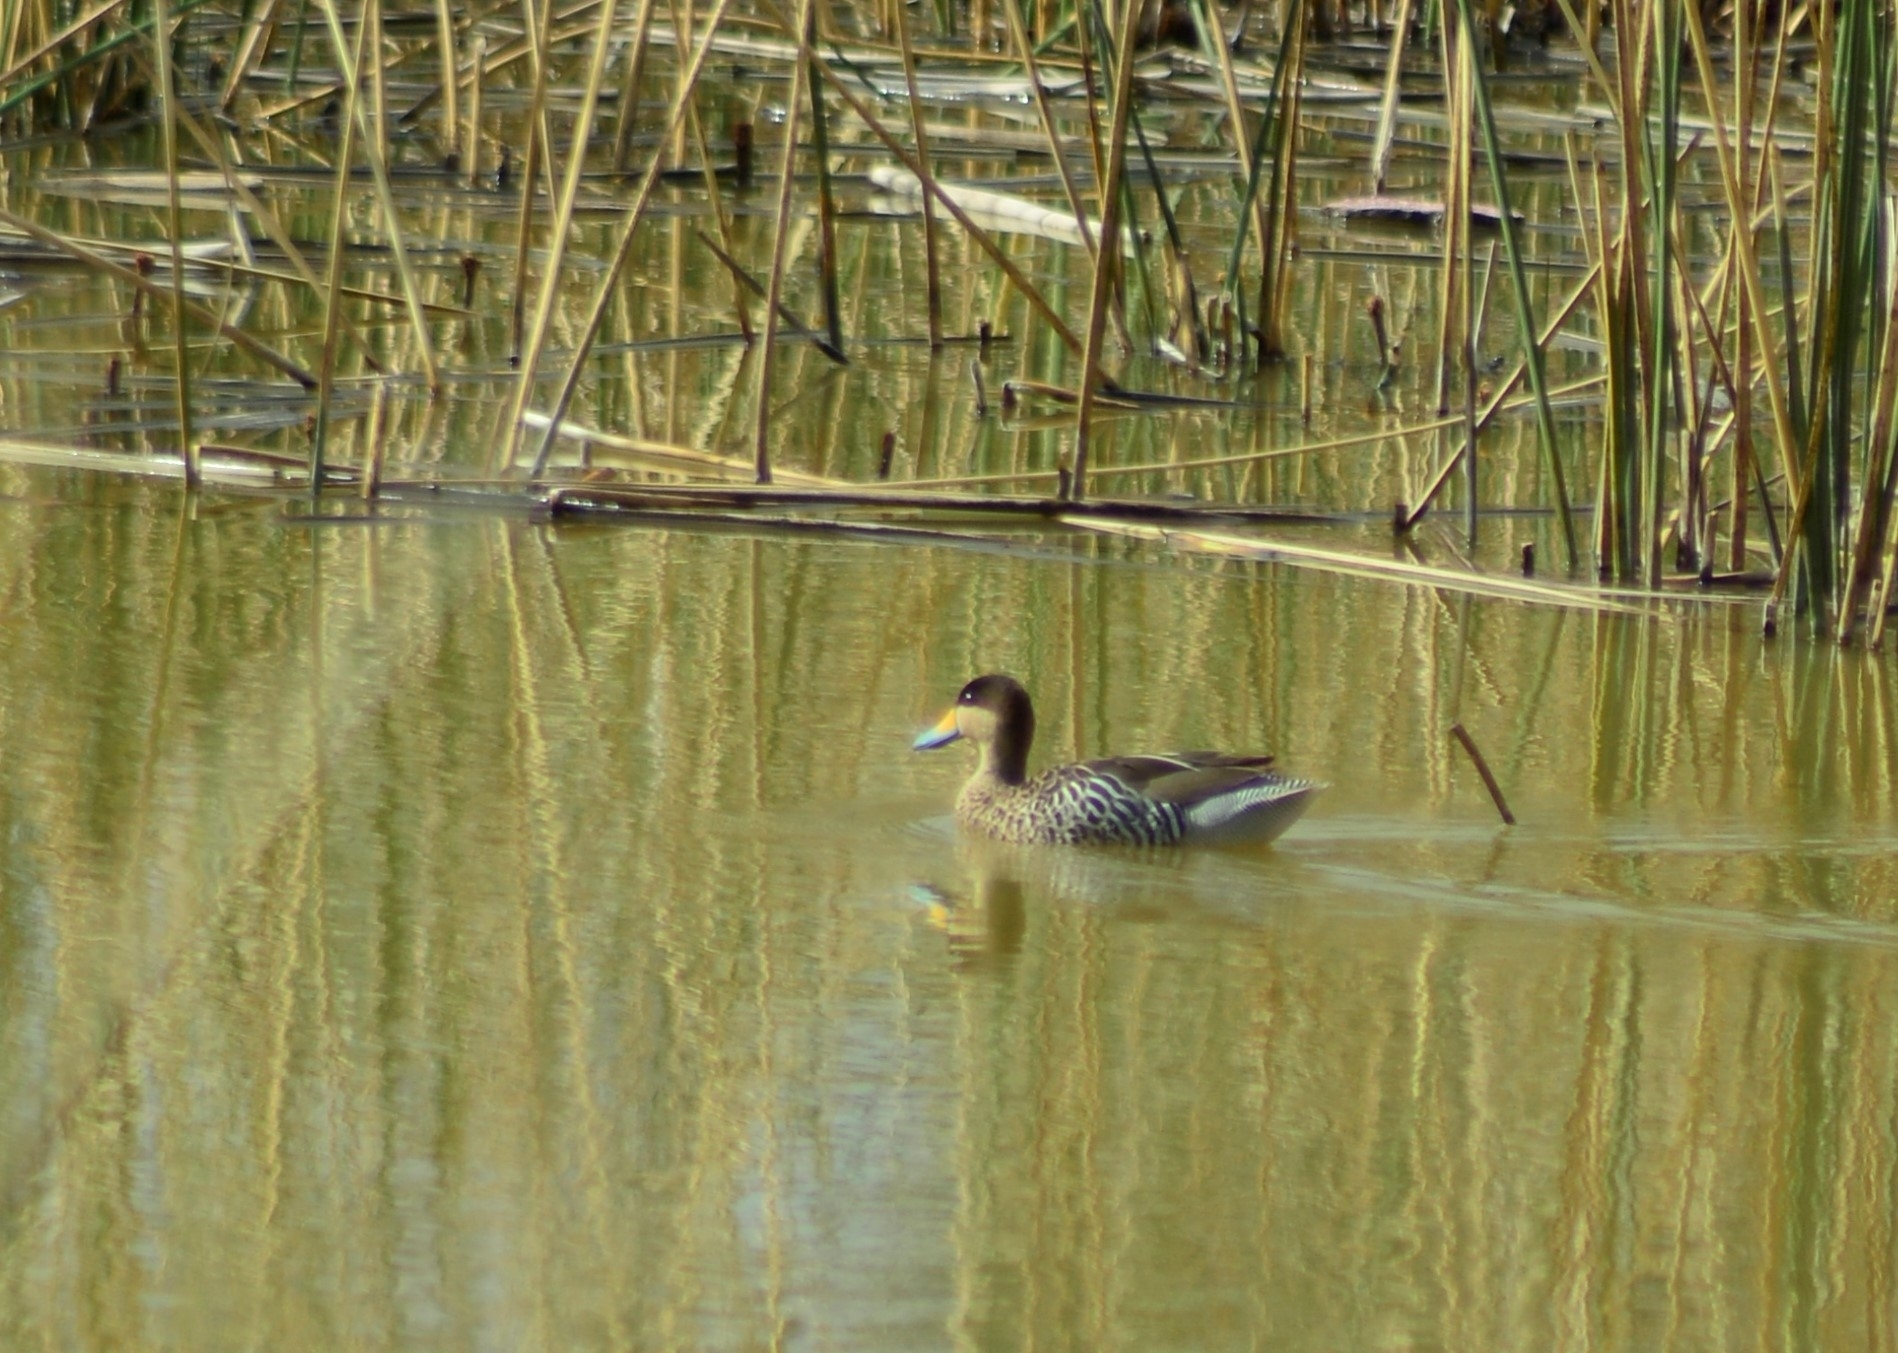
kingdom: Animalia
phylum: Chordata
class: Aves
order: Anseriformes
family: Anatidae
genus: Spatula
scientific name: Spatula versicolor
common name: Silver teal
